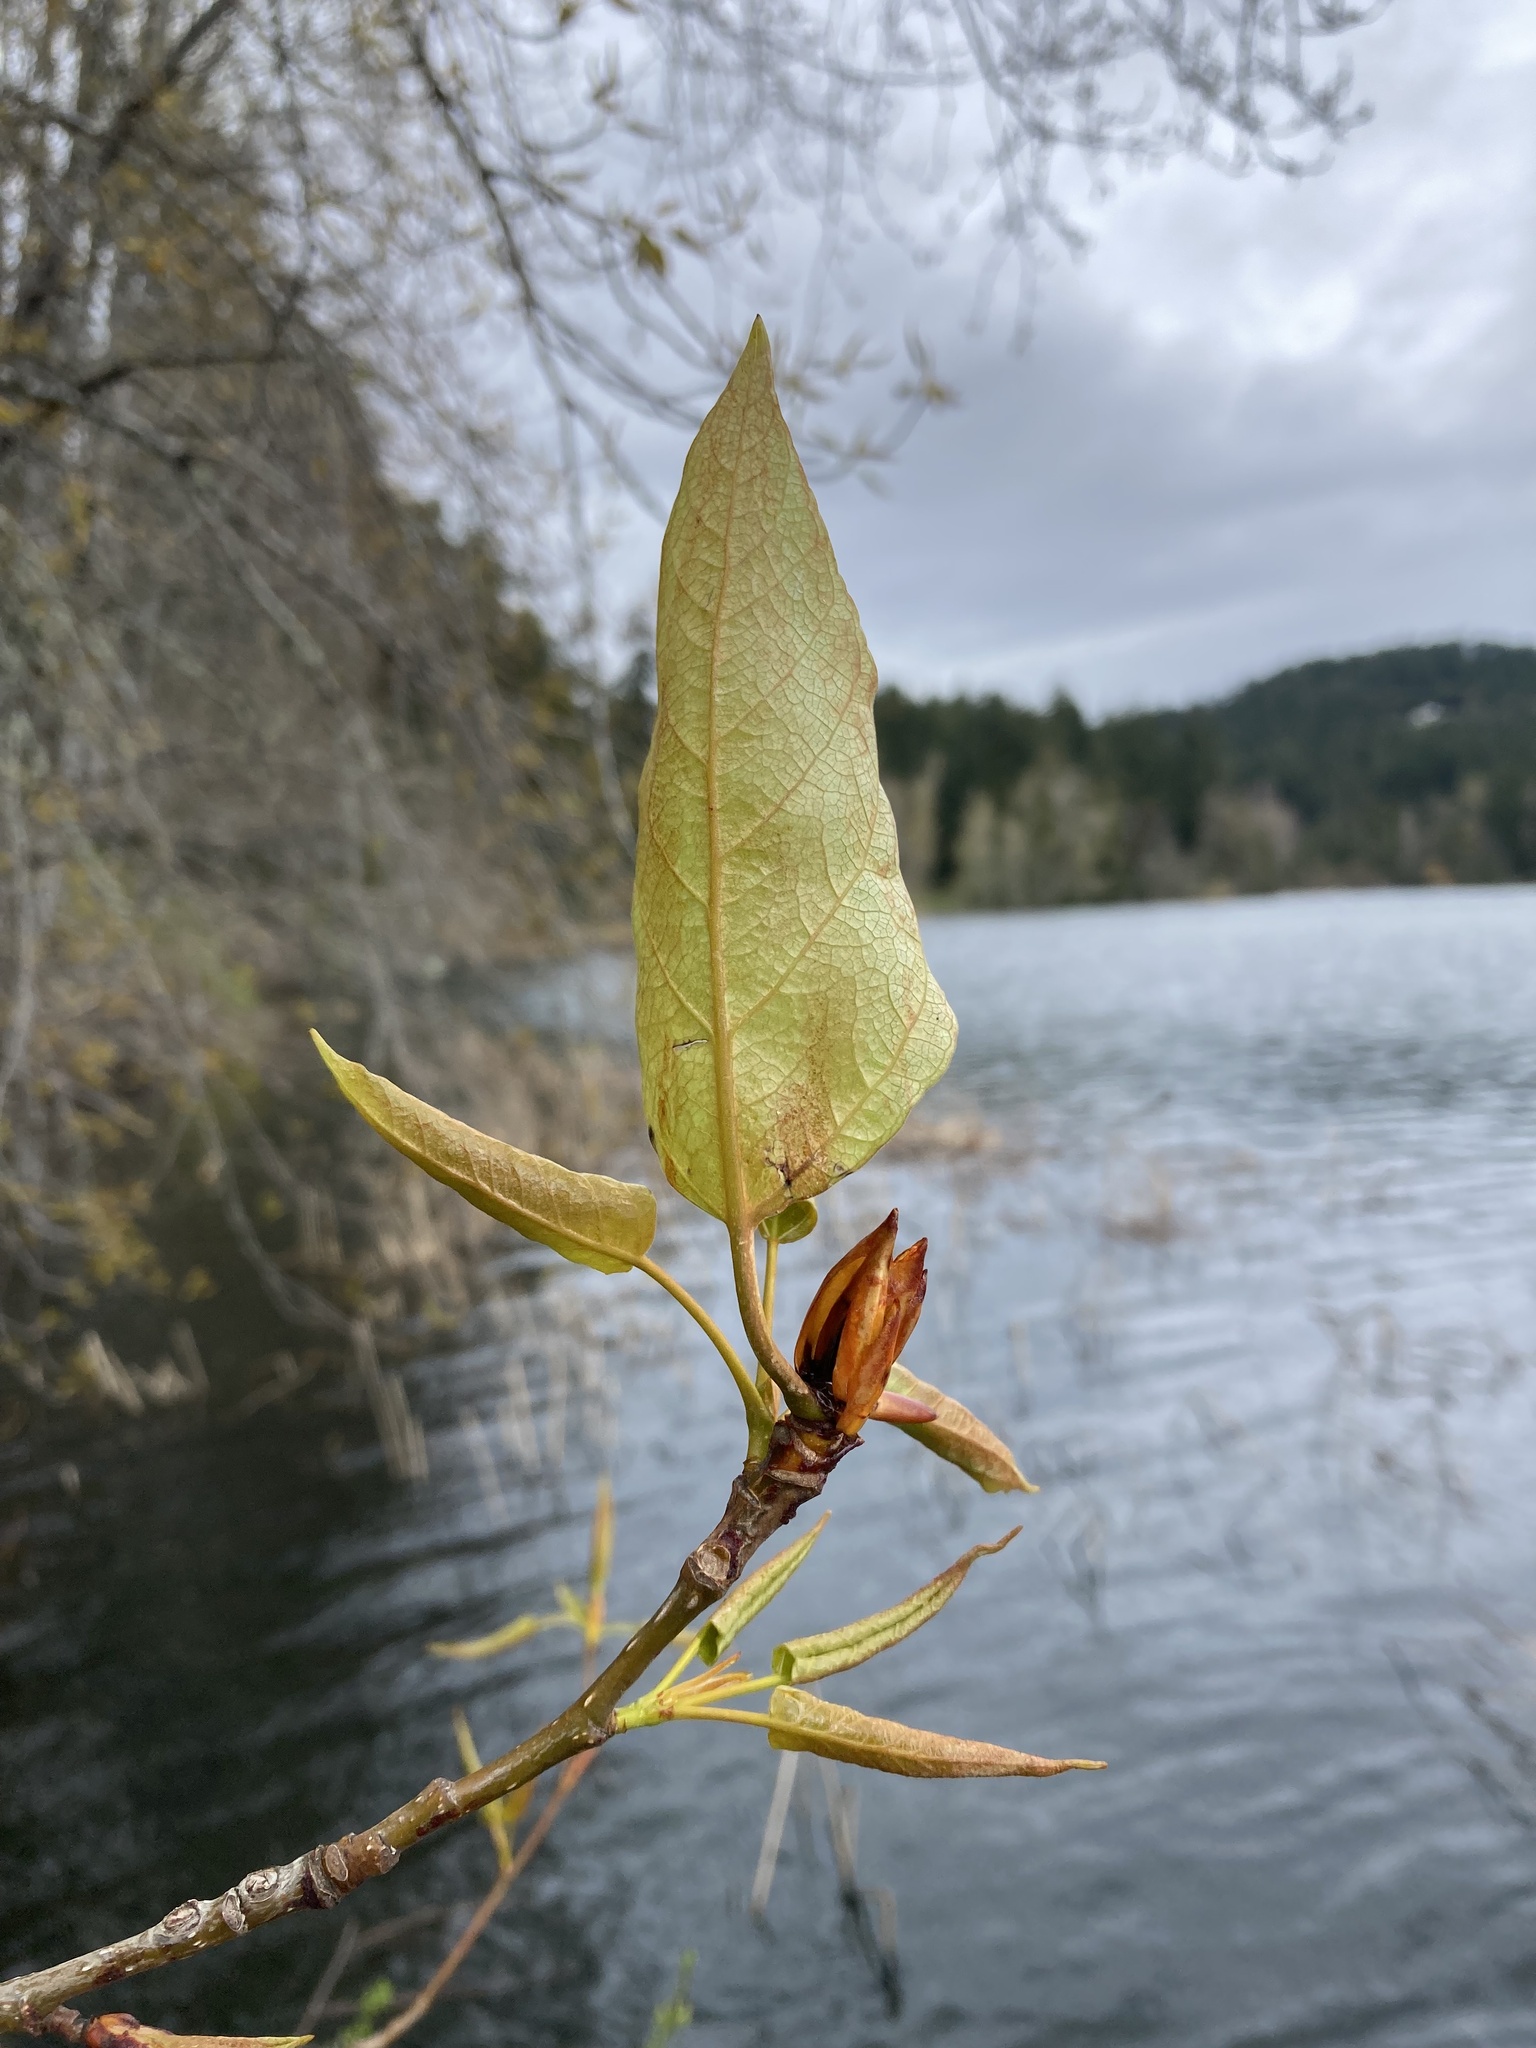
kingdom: Plantae
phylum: Tracheophyta
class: Magnoliopsida
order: Malpighiales
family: Salicaceae
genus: Populus
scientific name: Populus trichocarpa
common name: Black cottonwood
